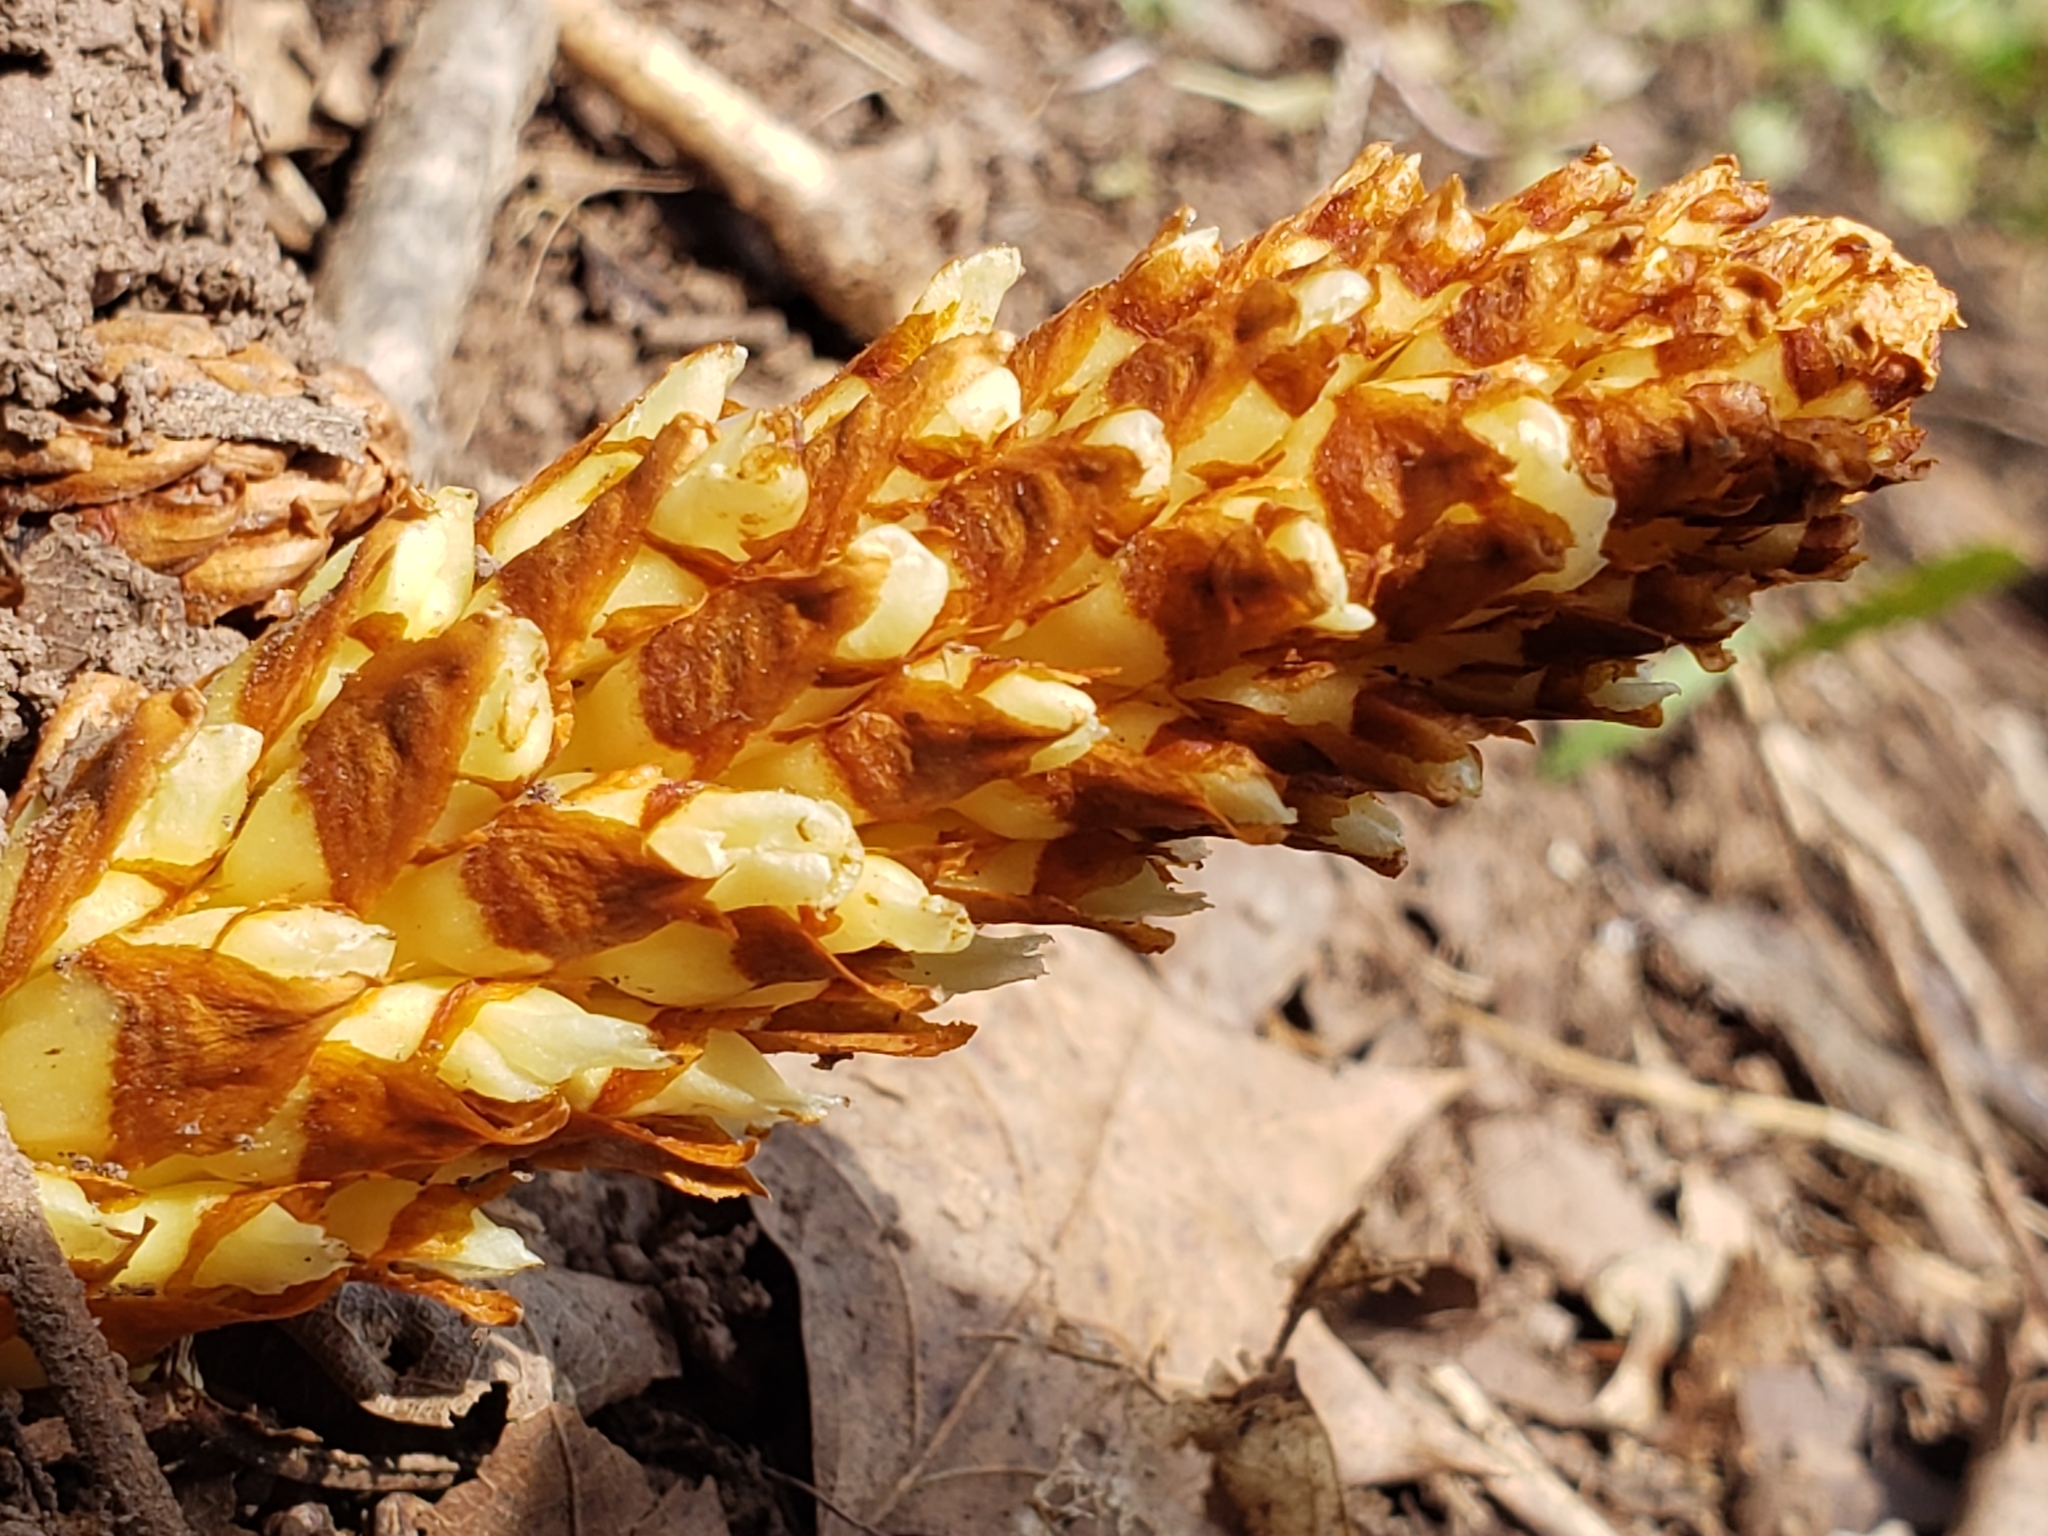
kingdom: Plantae
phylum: Tracheophyta
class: Magnoliopsida
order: Lamiales
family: Orobanchaceae
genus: Conopholis
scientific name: Conopholis americana
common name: American cancer-root
